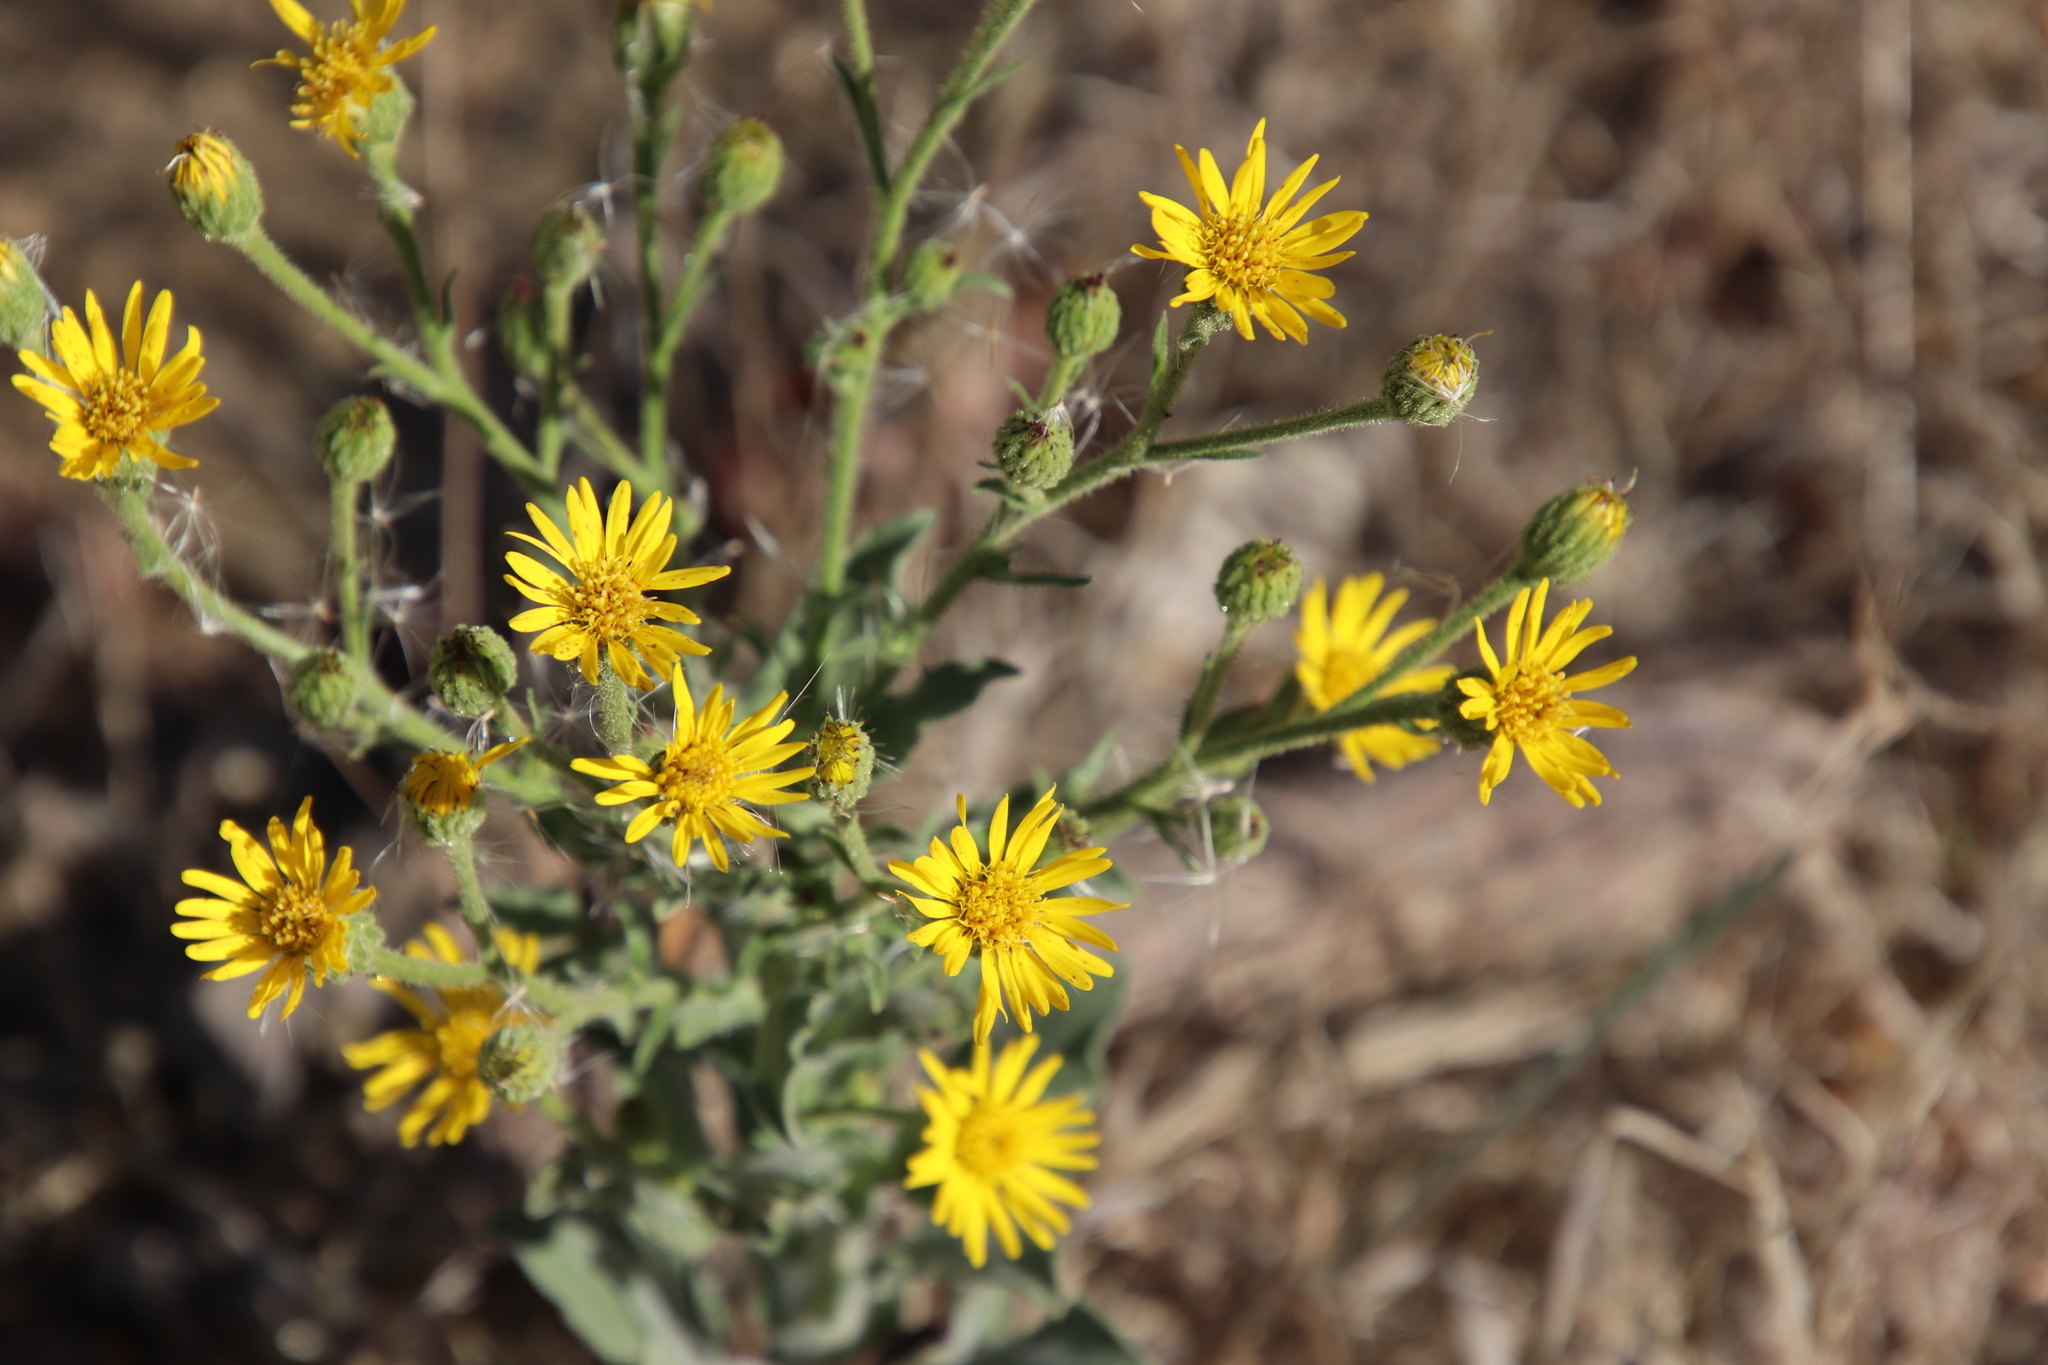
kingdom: Plantae
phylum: Tracheophyta
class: Magnoliopsida
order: Asterales
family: Asteraceae
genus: Heterotheca
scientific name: Heterotheca grandiflora
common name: Telegraphweed
